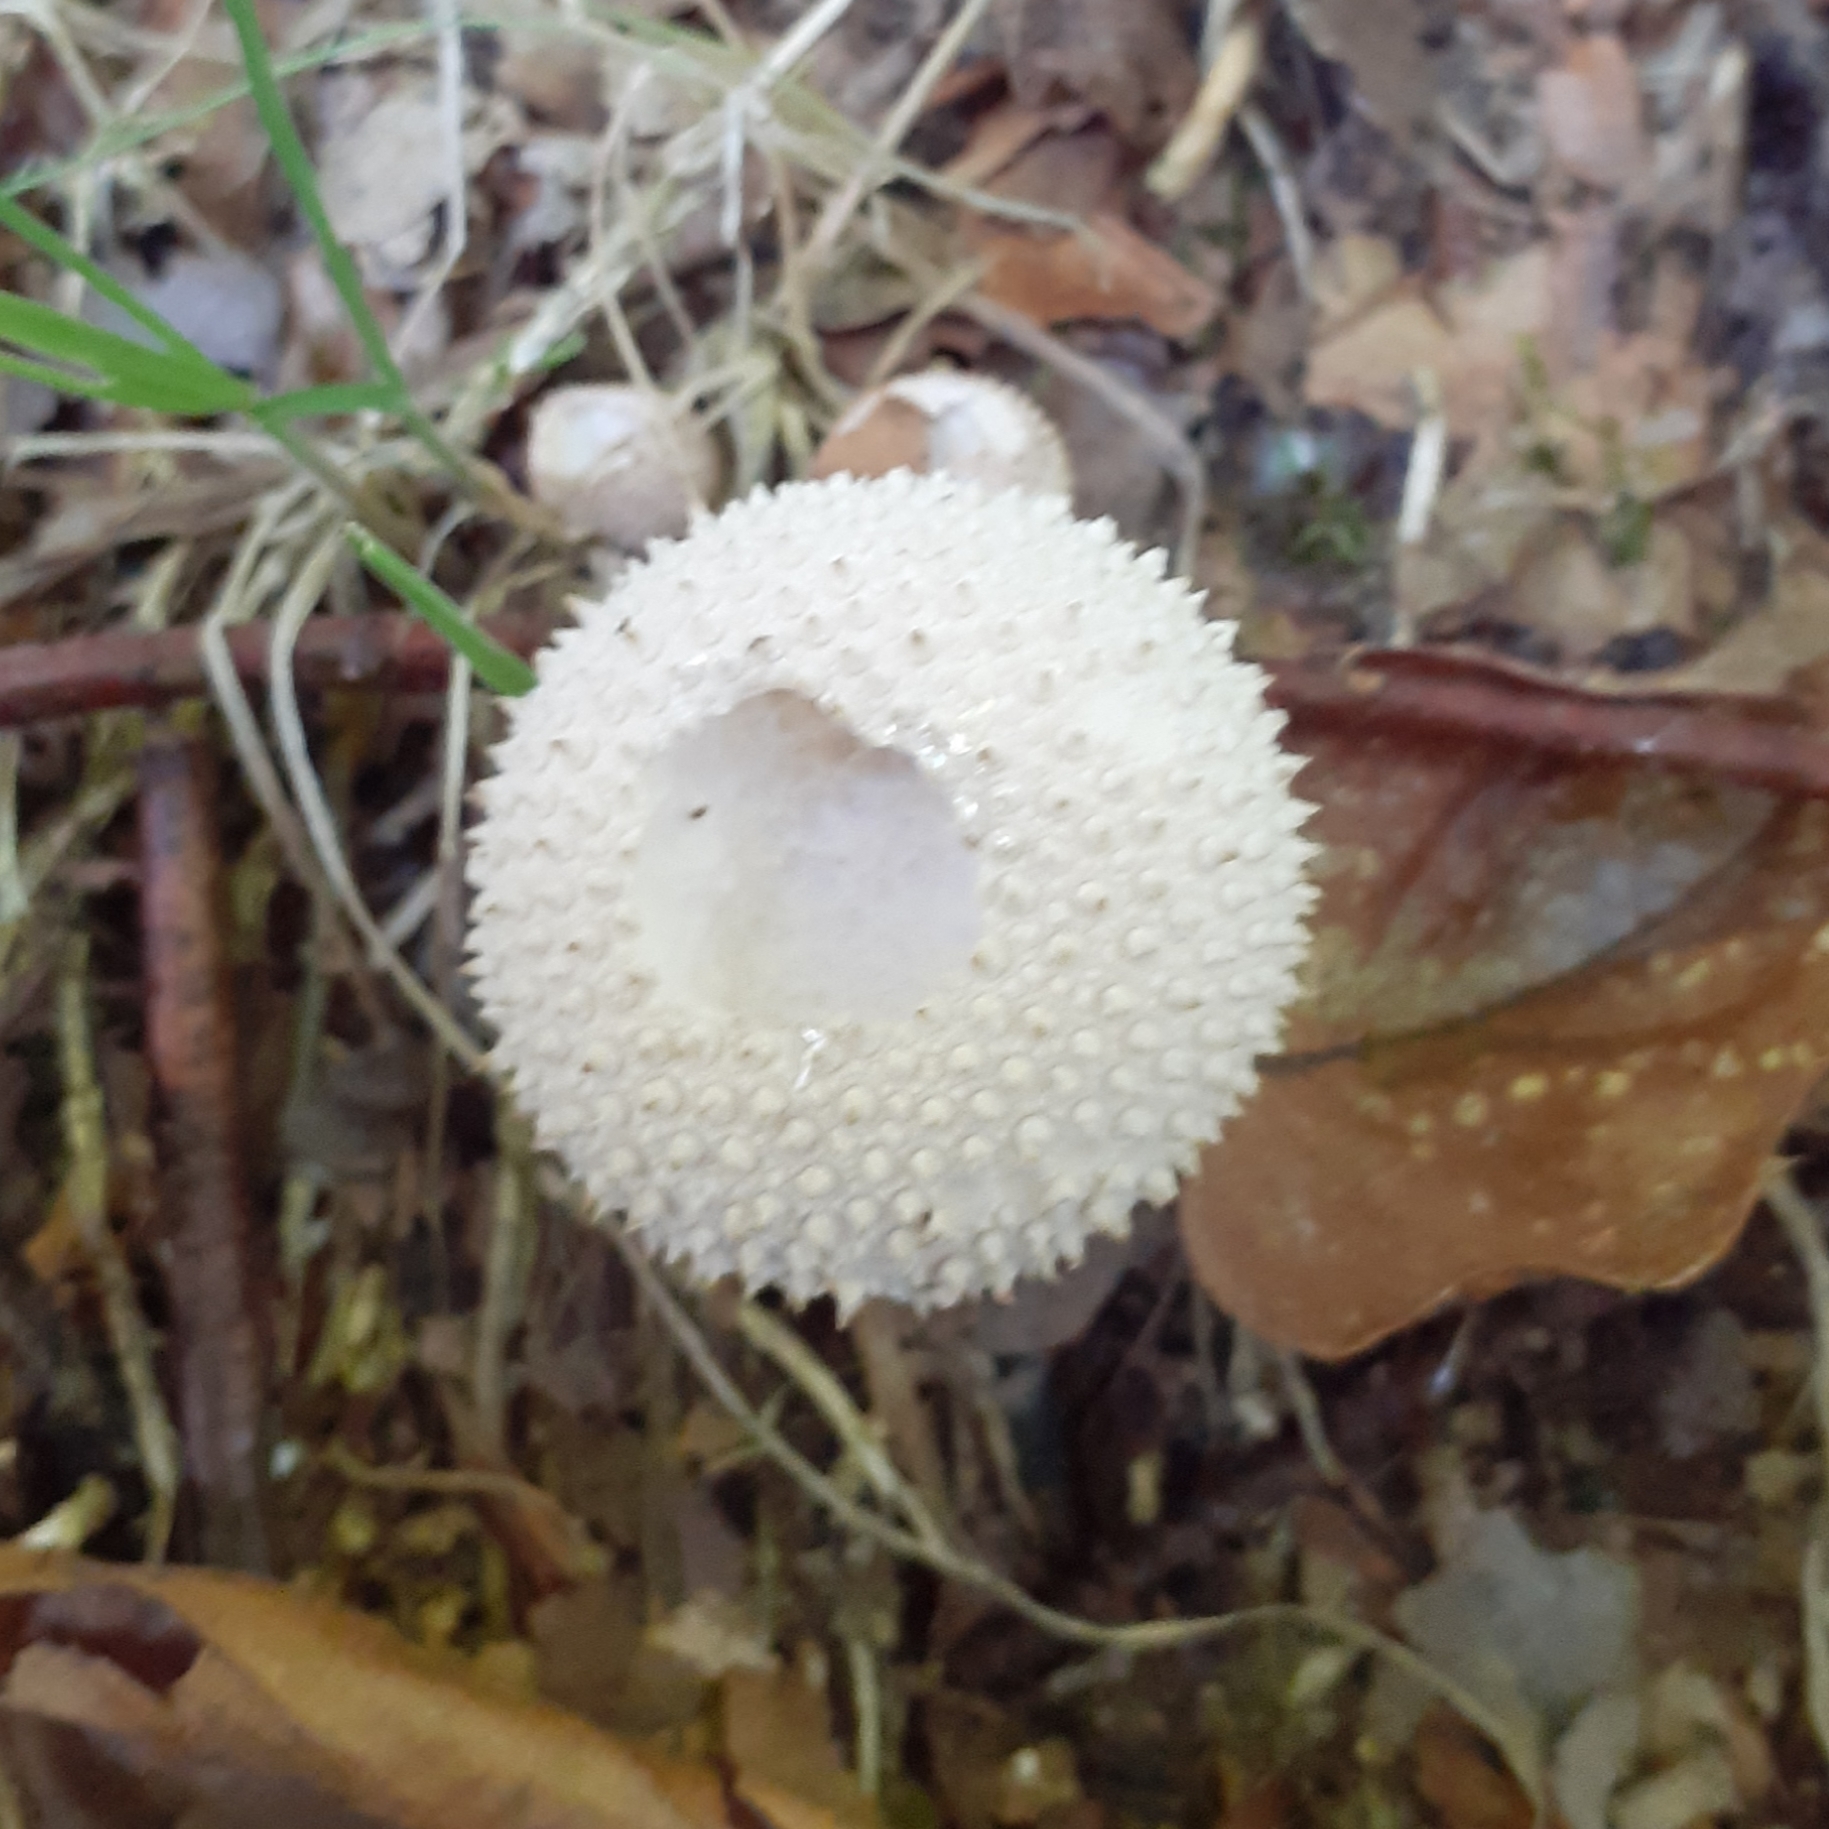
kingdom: Fungi
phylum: Basidiomycota
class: Agaricomycetes
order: Agaricales
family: Lycoperdaceae
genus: Lycoperdon
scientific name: Lycoperdon perlatum
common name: Common puffball
